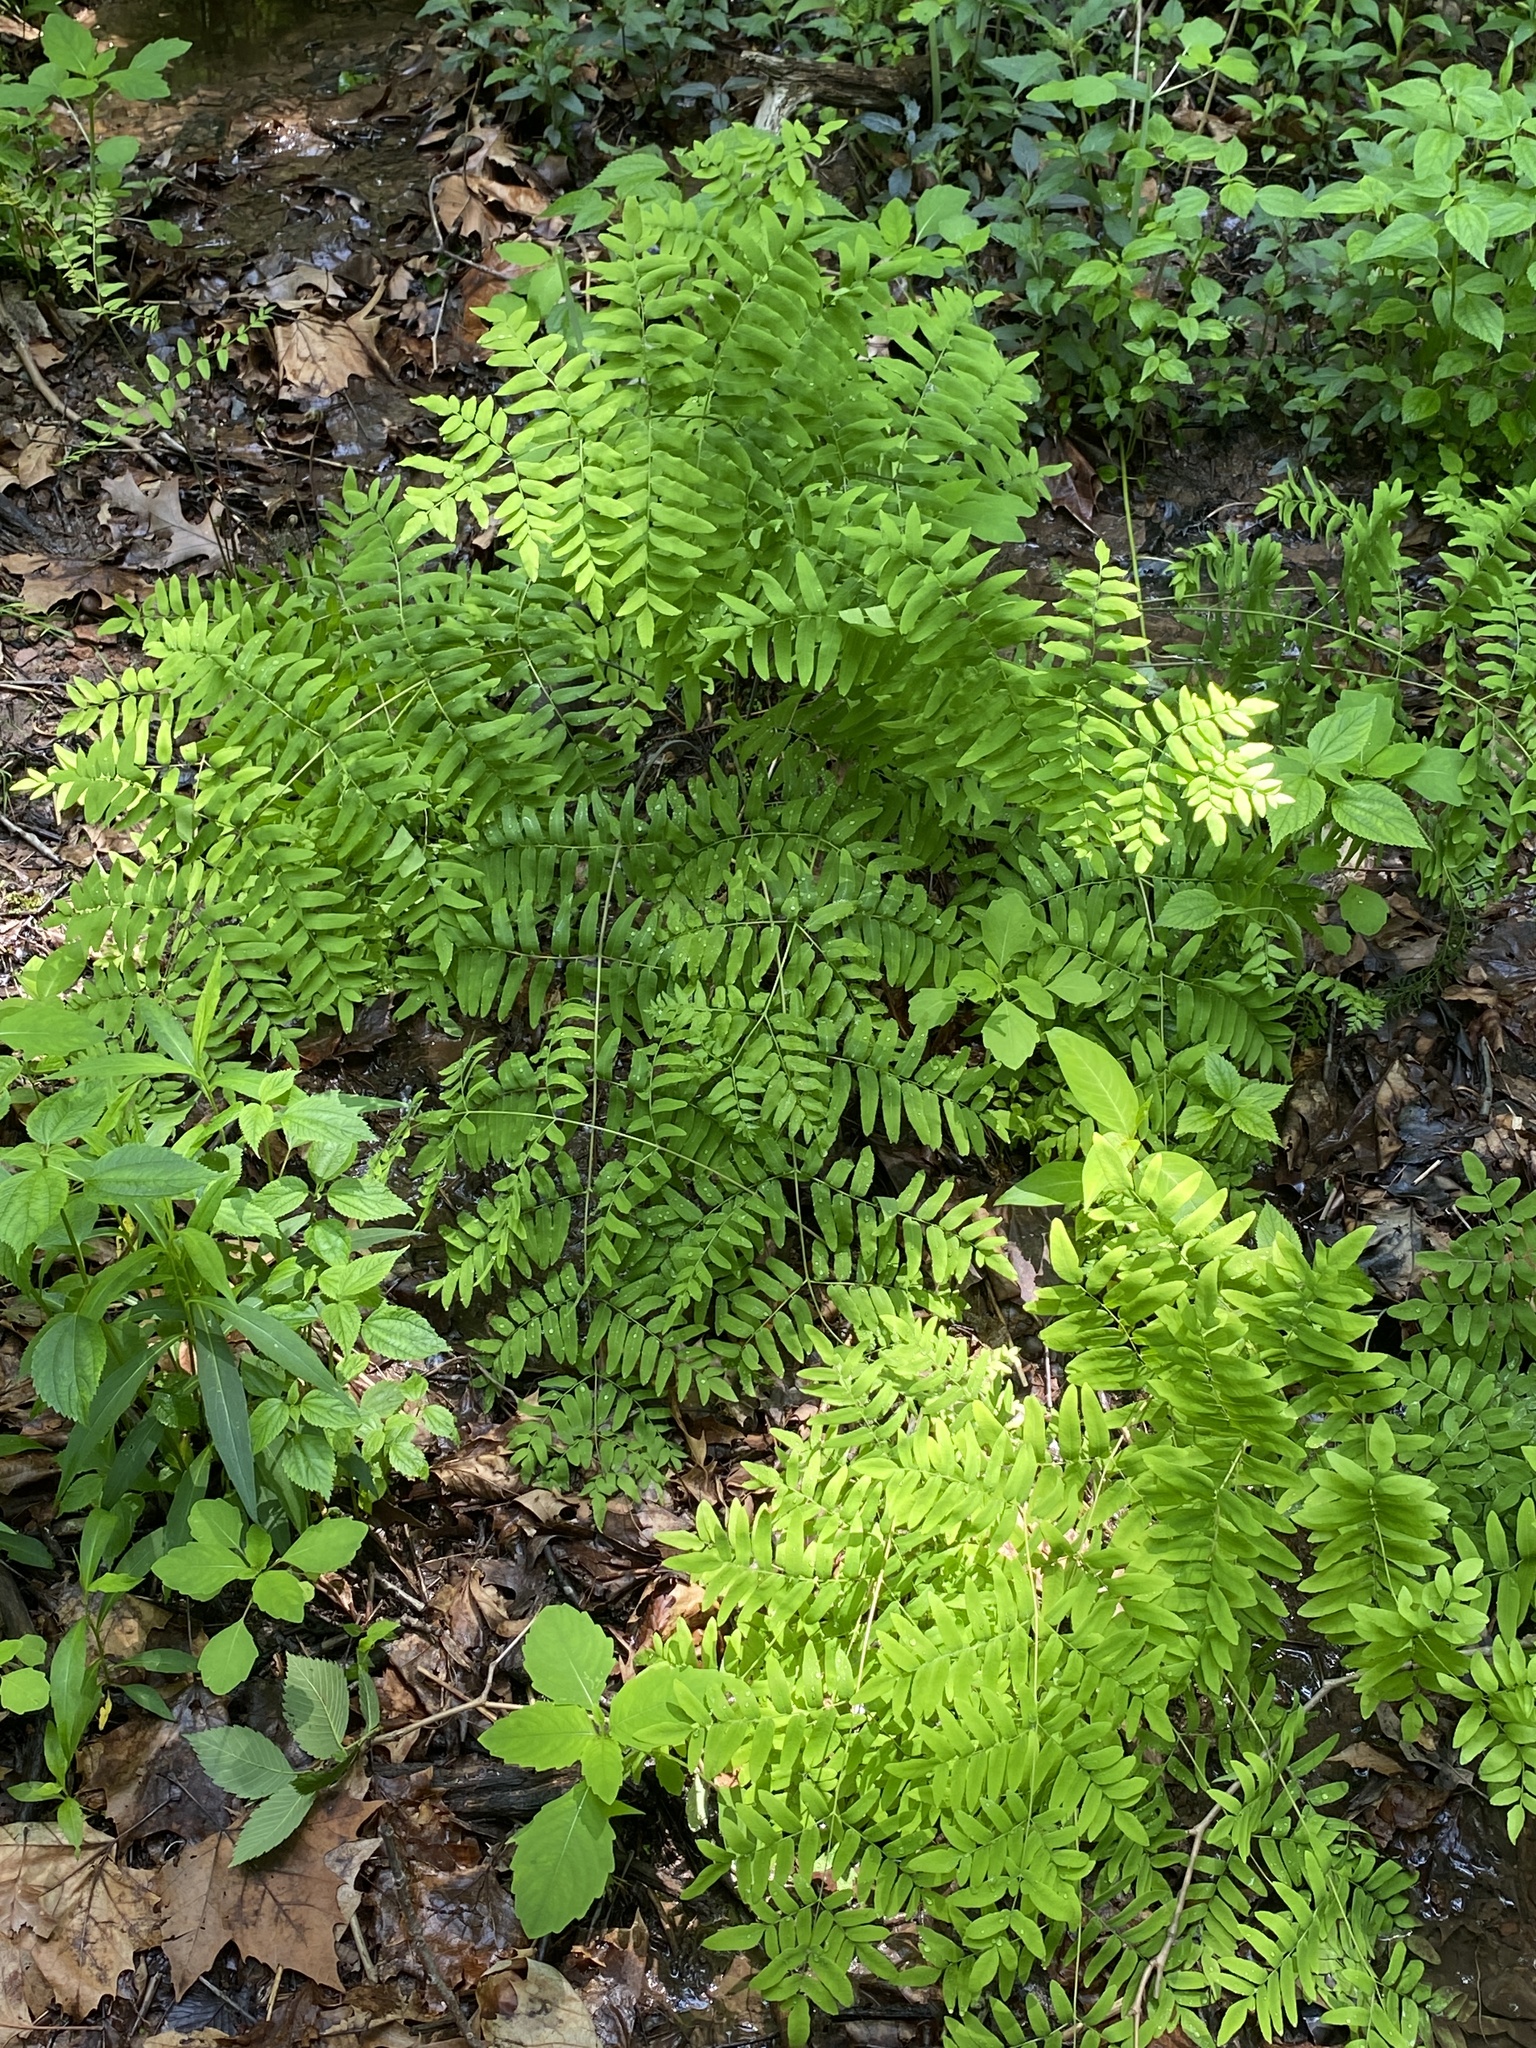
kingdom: Plantae
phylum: Tracheophyta
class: Polypodiopsida
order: Osmundales
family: Osmundaceae
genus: Osmunda
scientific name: Osmunda spectabilis
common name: American royal fern
